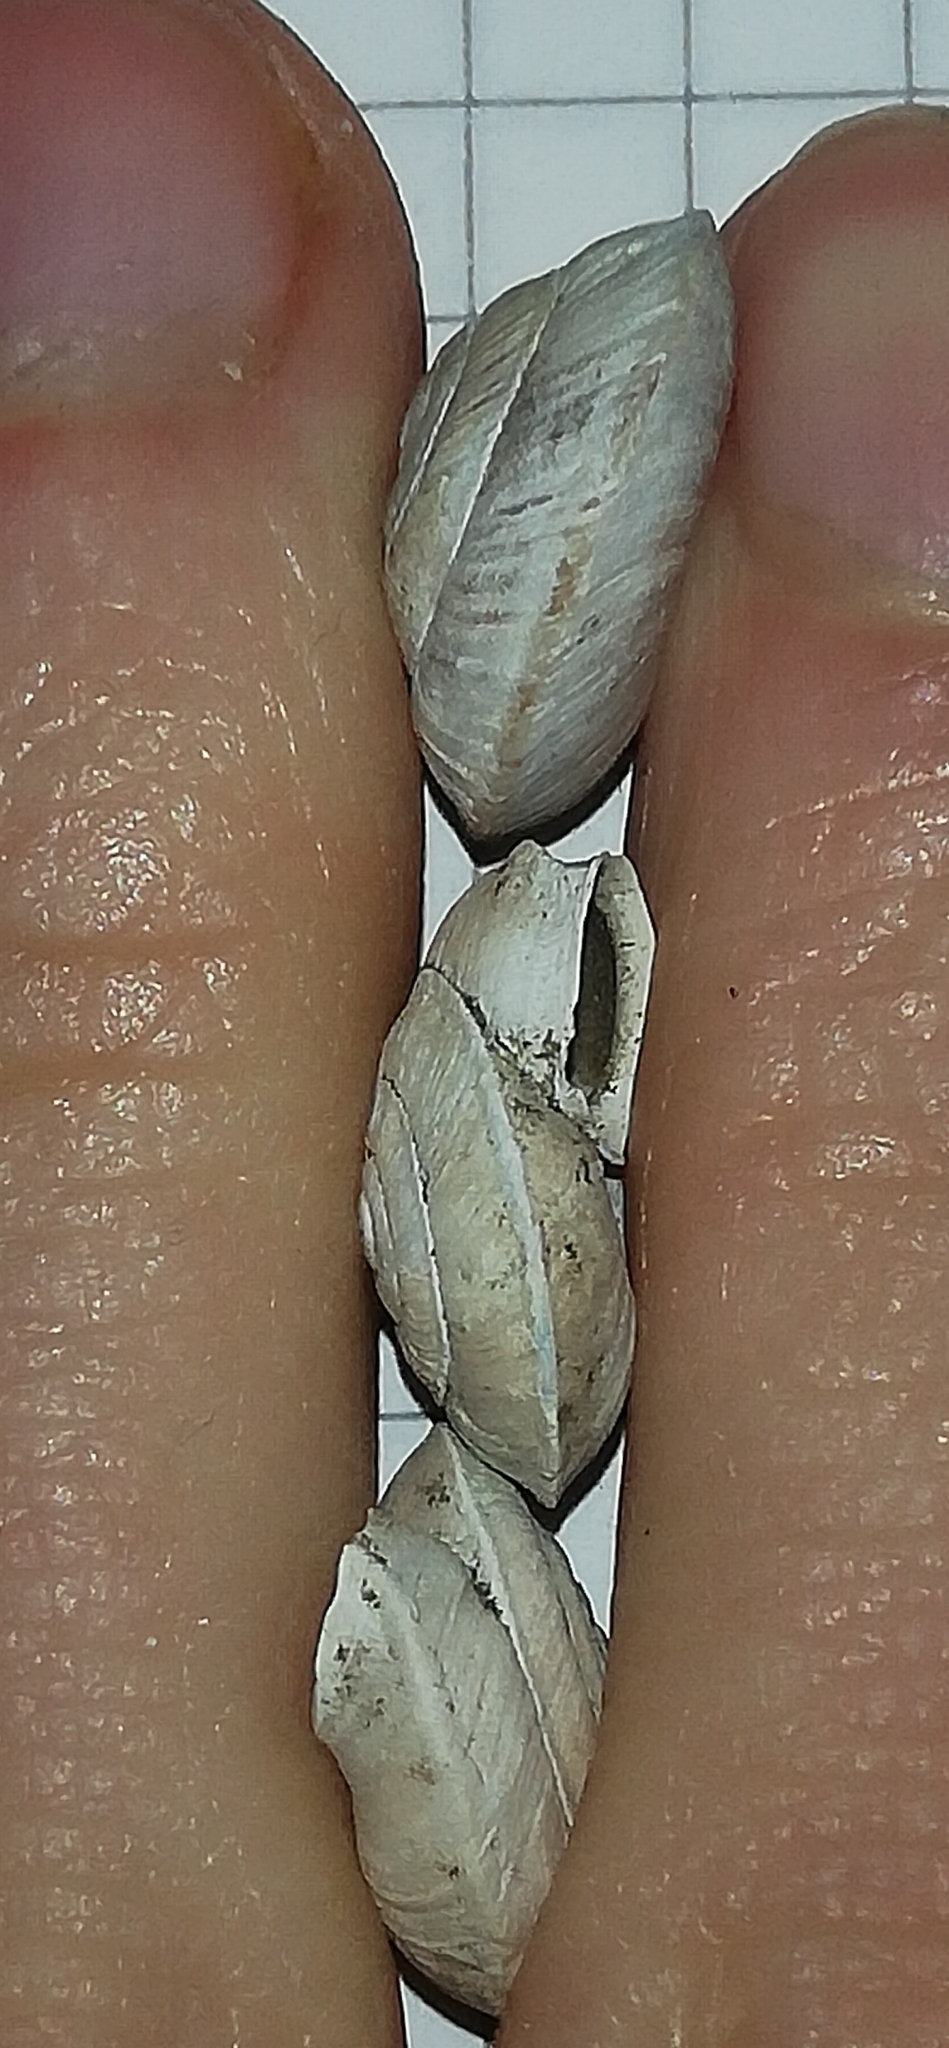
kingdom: Animalia
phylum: Mollusca
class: Gastropoda
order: Stylommatophora
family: Helicidae
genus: Helicigona
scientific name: Helicigona lapicida
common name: Lapidary snail
